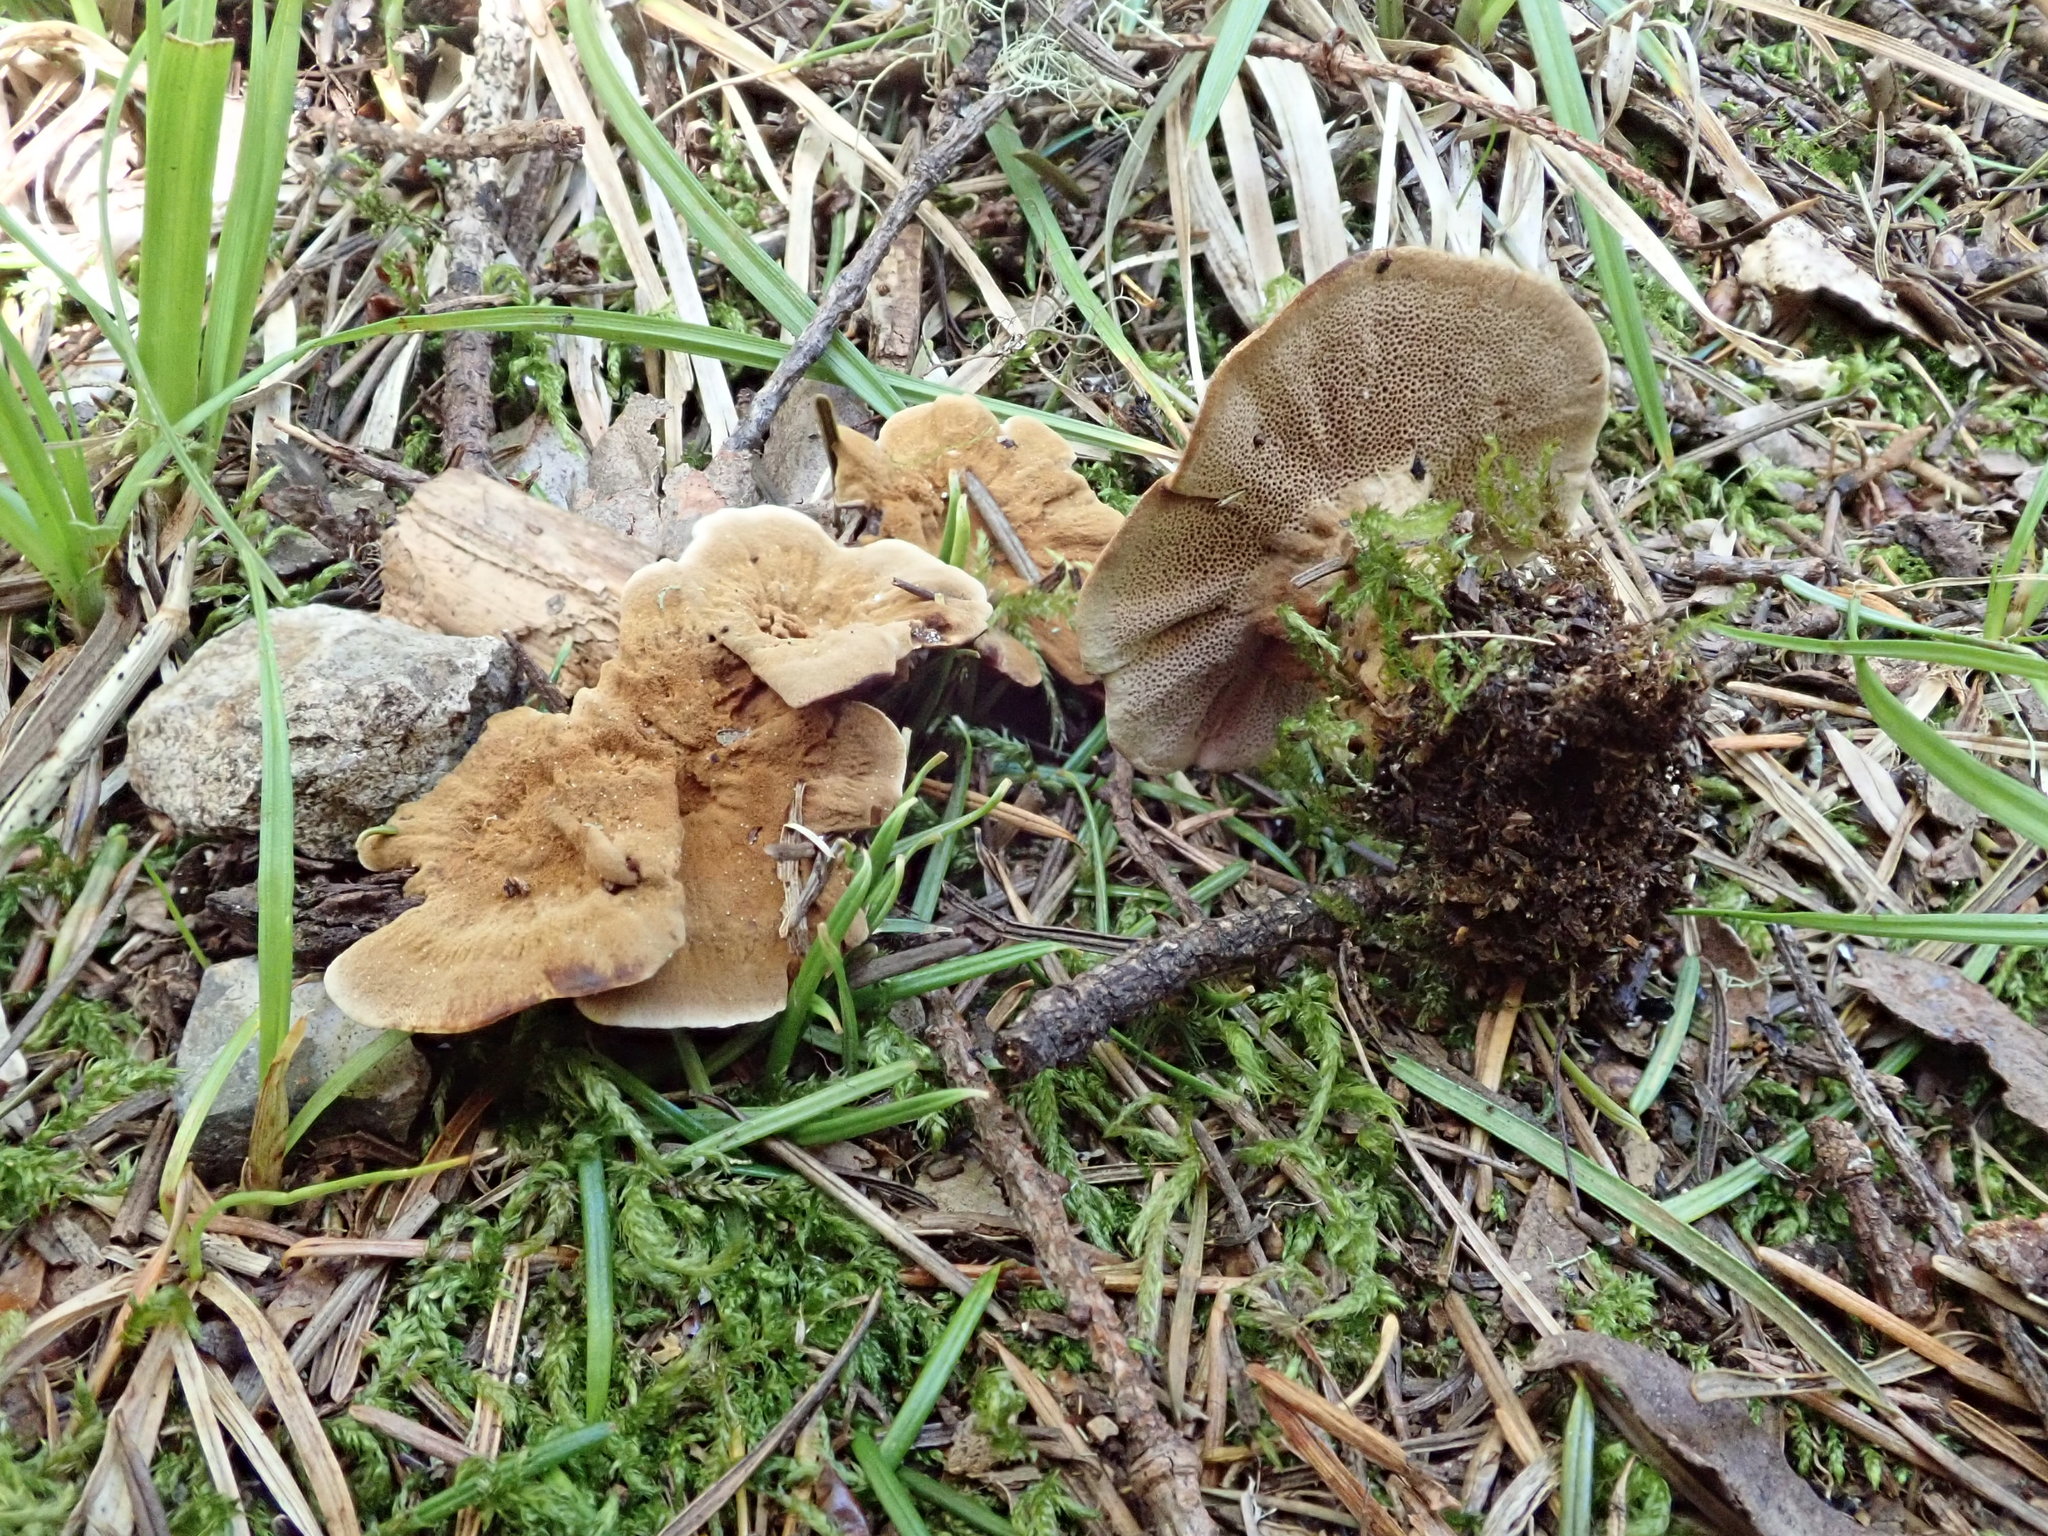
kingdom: Fungi
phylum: Basidiomycota
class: Agaricomycetes
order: Hymenochaetales
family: Hymenochaetaceae
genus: Coltricia
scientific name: Coltricia perennis
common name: Tiger's eye
